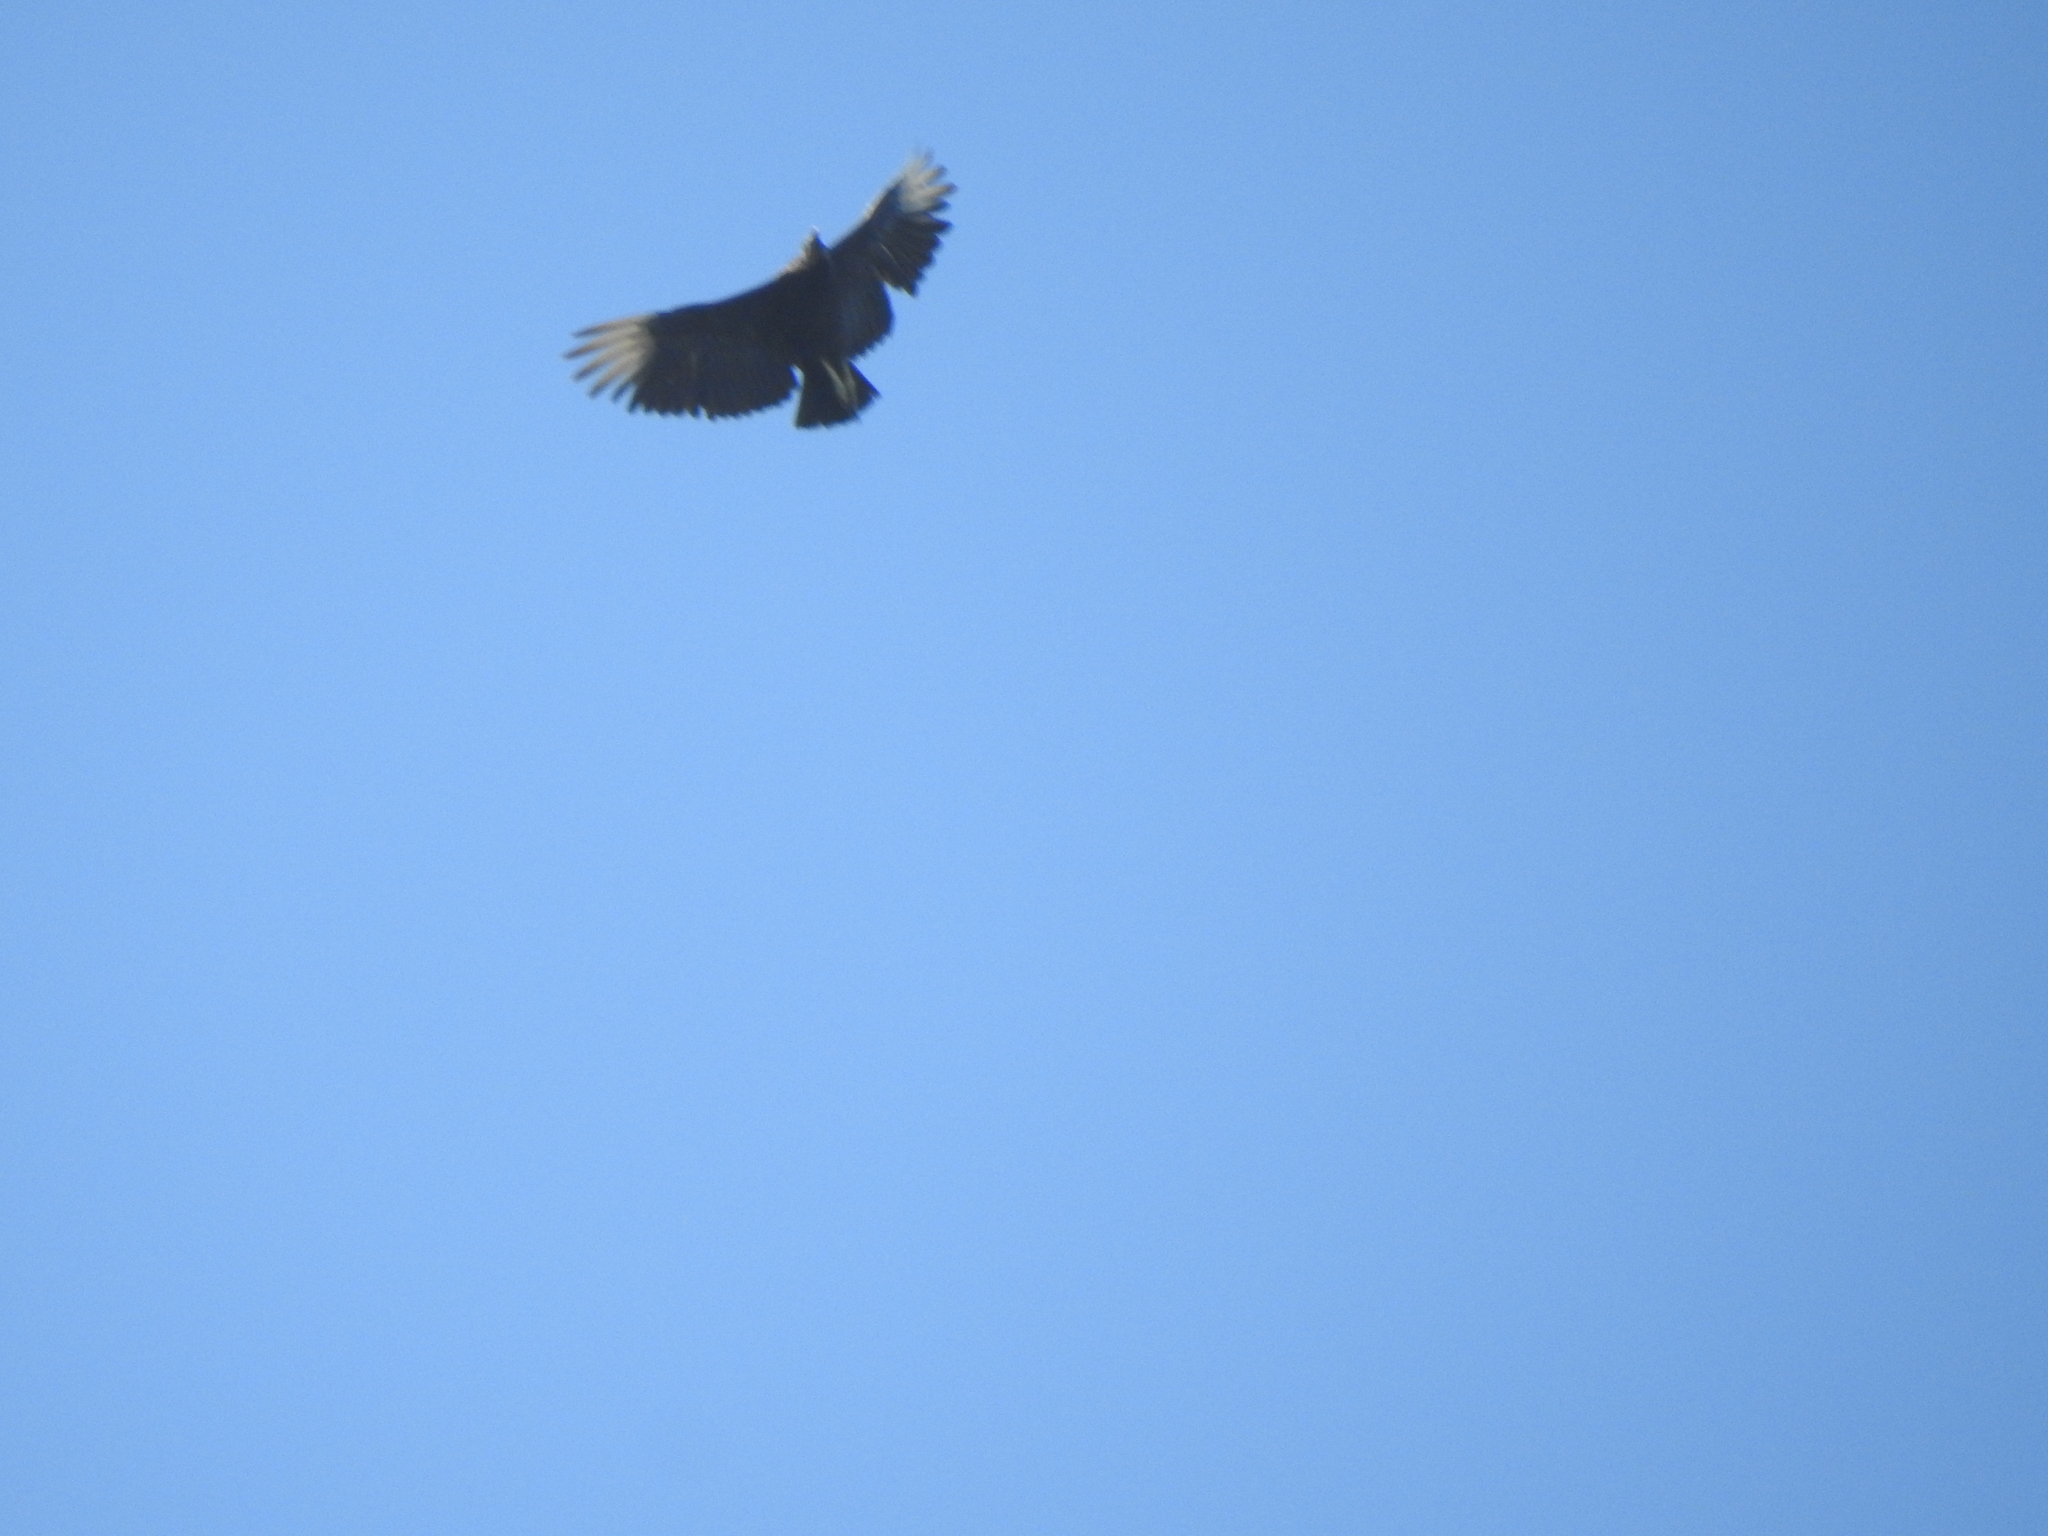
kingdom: Animalia
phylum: Chordata
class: Aves
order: Accipitriformes
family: Cathartidae
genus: Coragyps
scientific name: Coragyps atratus
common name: Black vulture
